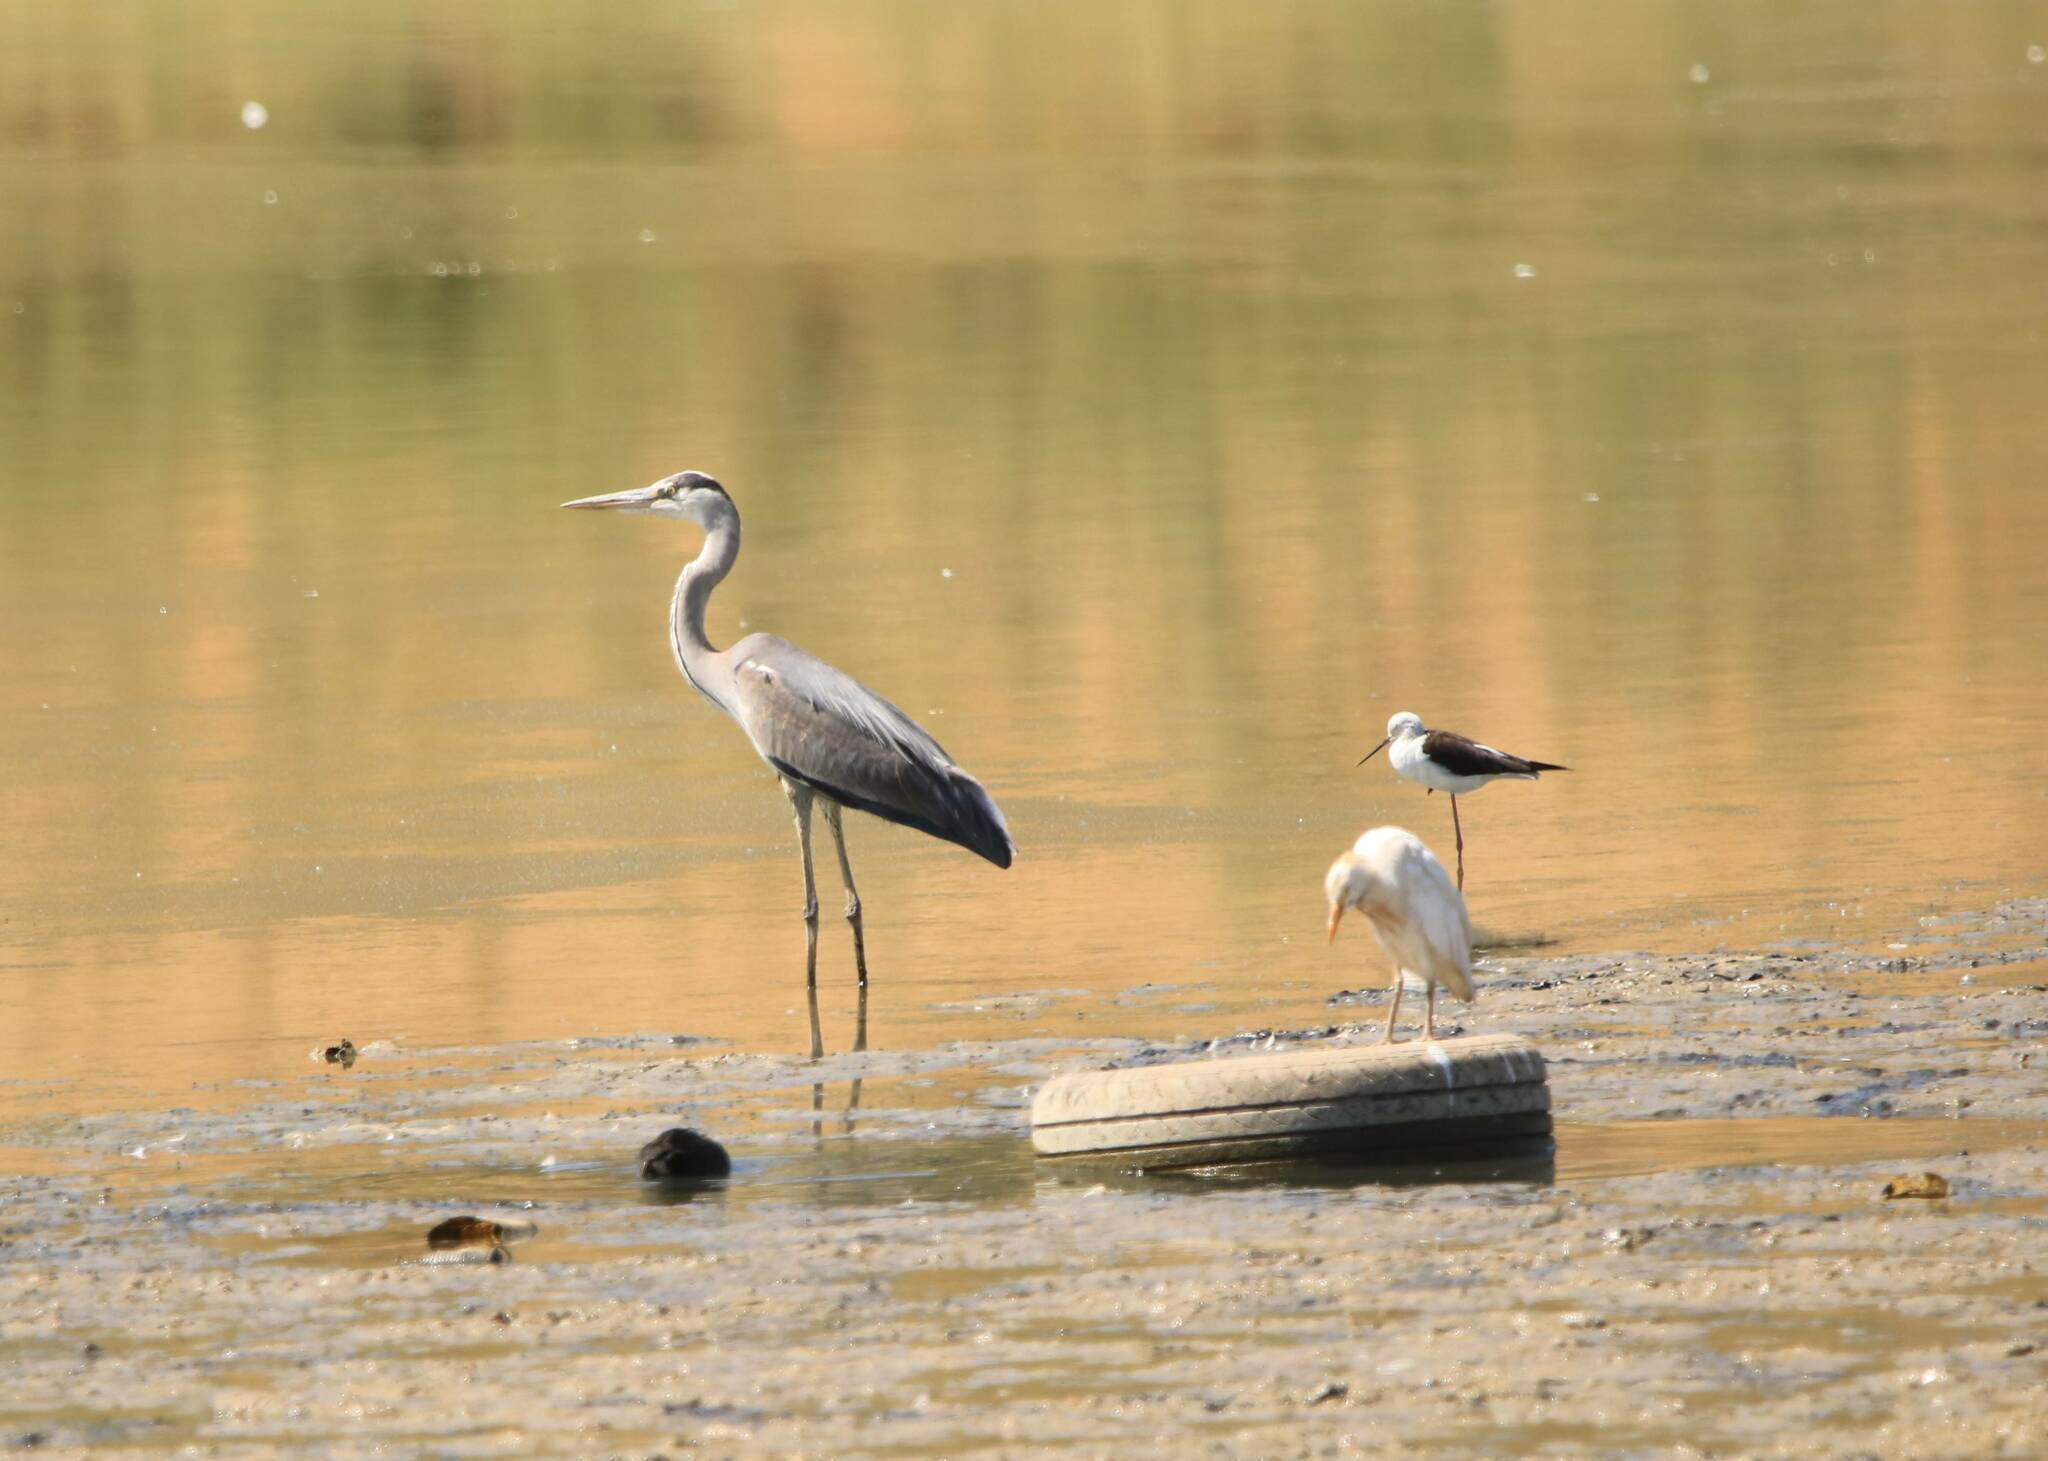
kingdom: Animalia
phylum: Chordata
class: Aves
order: Pelecaniformes
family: Ardeidae
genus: Ardea
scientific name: Ardea cinerea
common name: Grey heron
